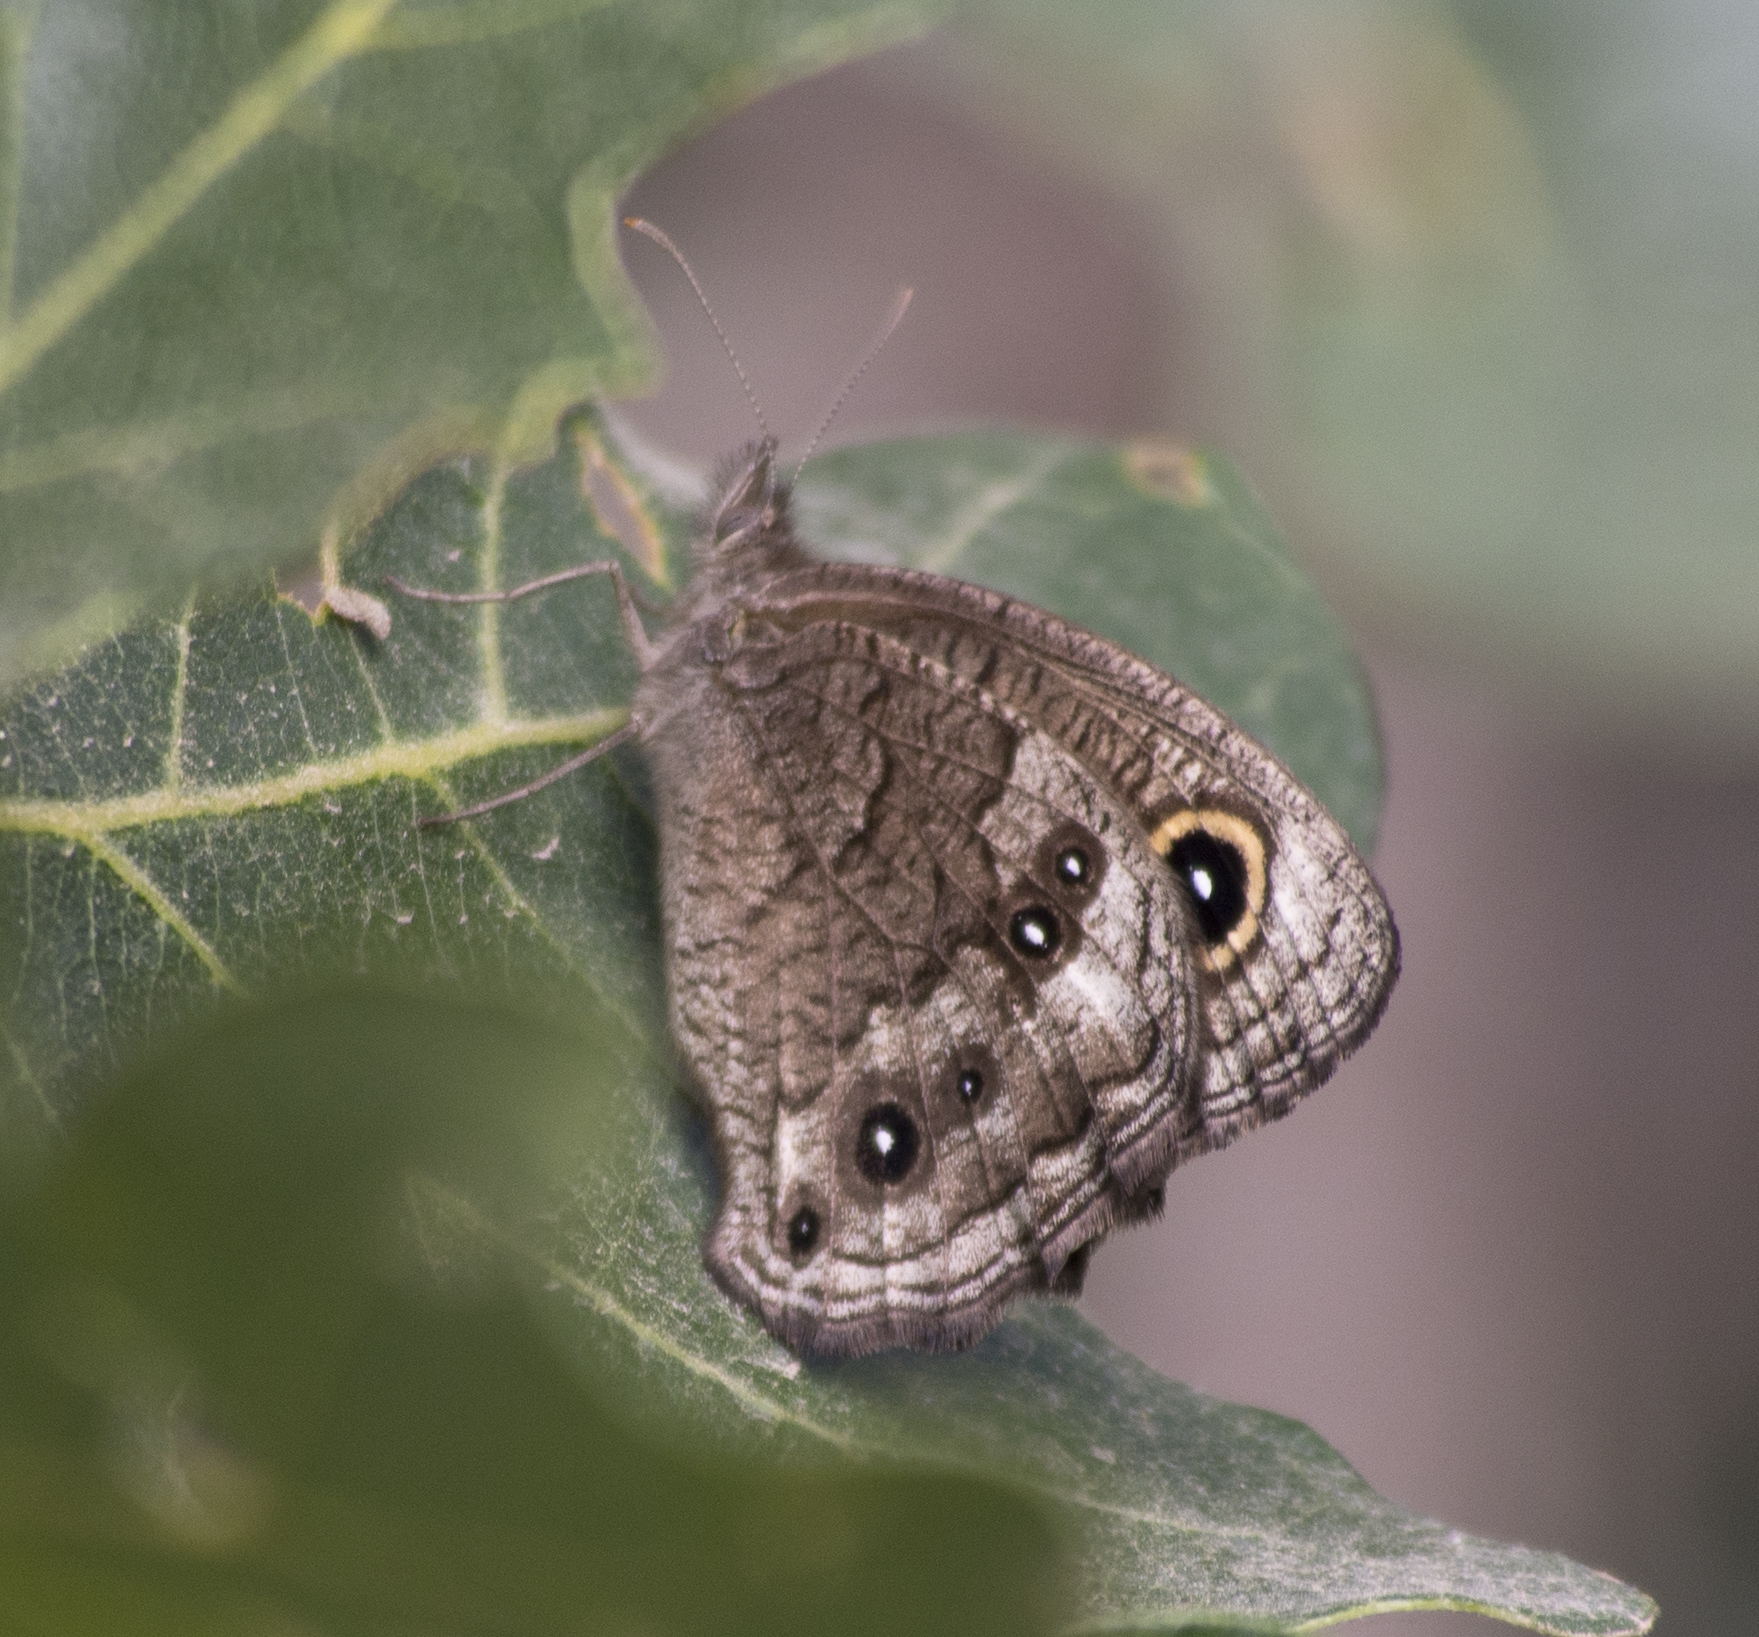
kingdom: Animalia
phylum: Arthropoda
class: Insecta
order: Lepidoptera
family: Nymphalidae
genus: Cercyonis
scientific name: Cercyonis sthenele
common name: Great basin wood-nymph
